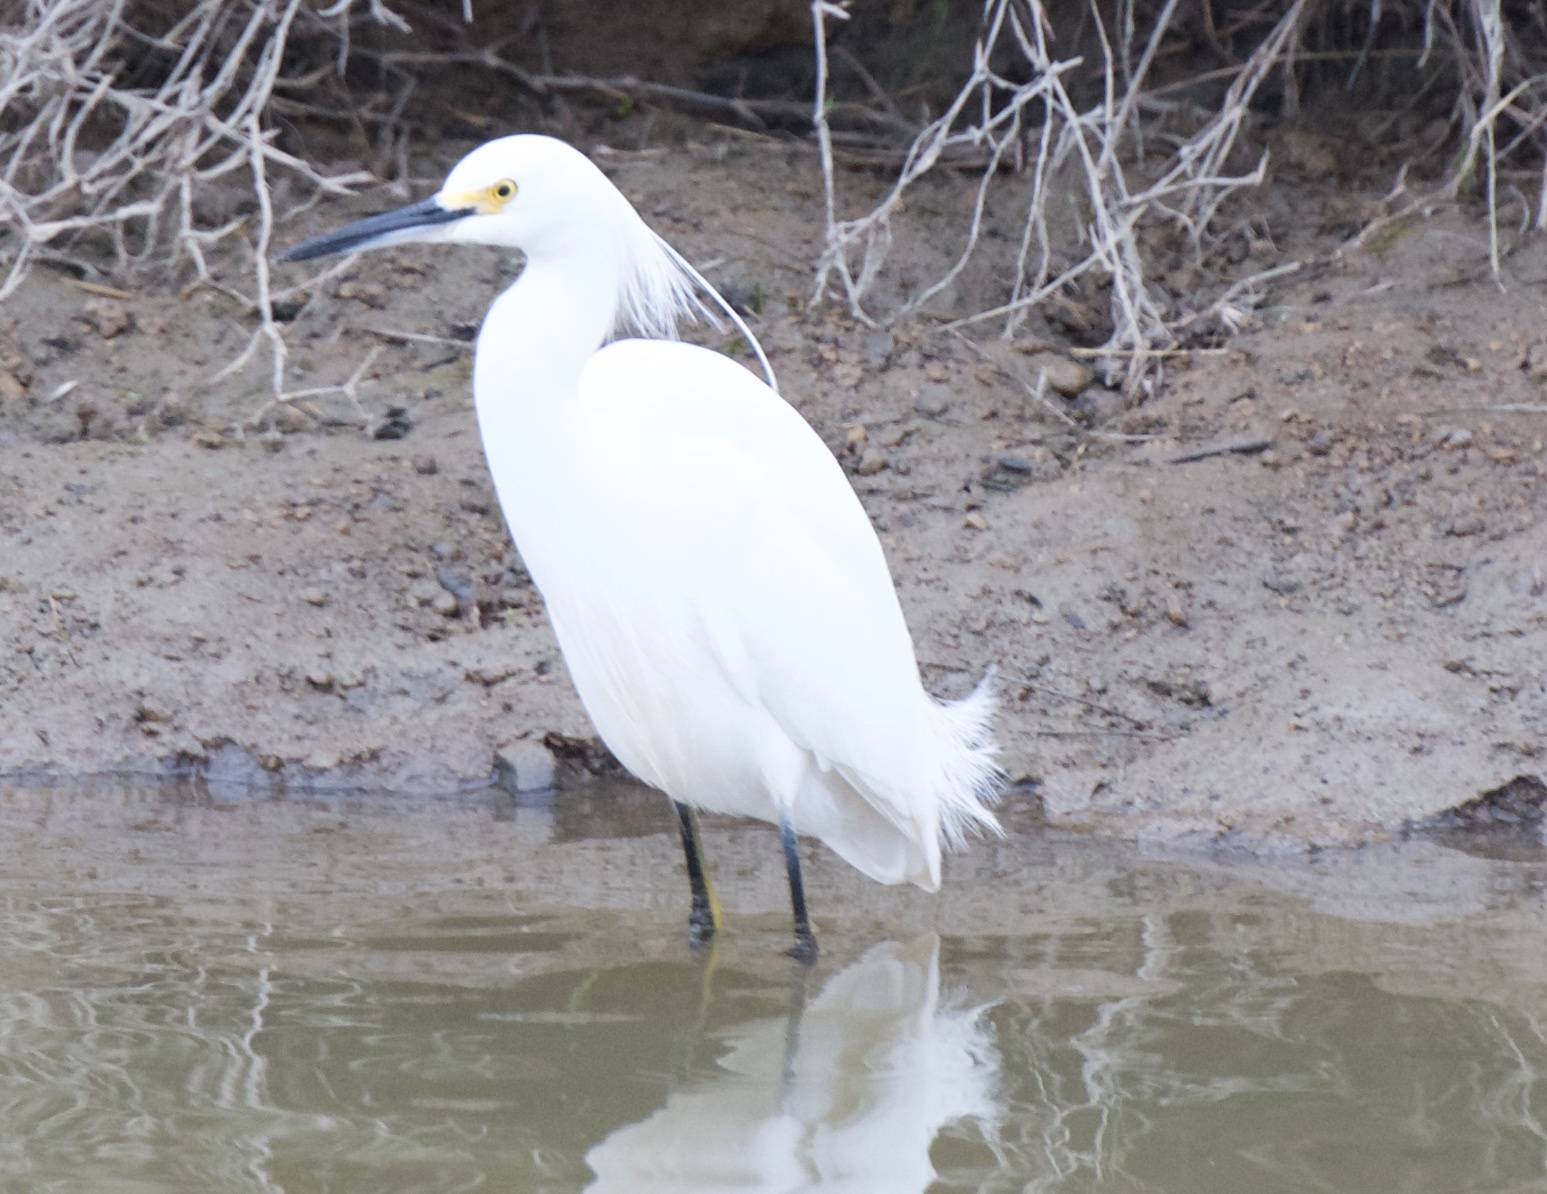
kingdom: Animalia
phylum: Chordata
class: Aves
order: Pelecaniformes
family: Ardeidae
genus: Egretta
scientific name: Egretta thula
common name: Snowy egret
